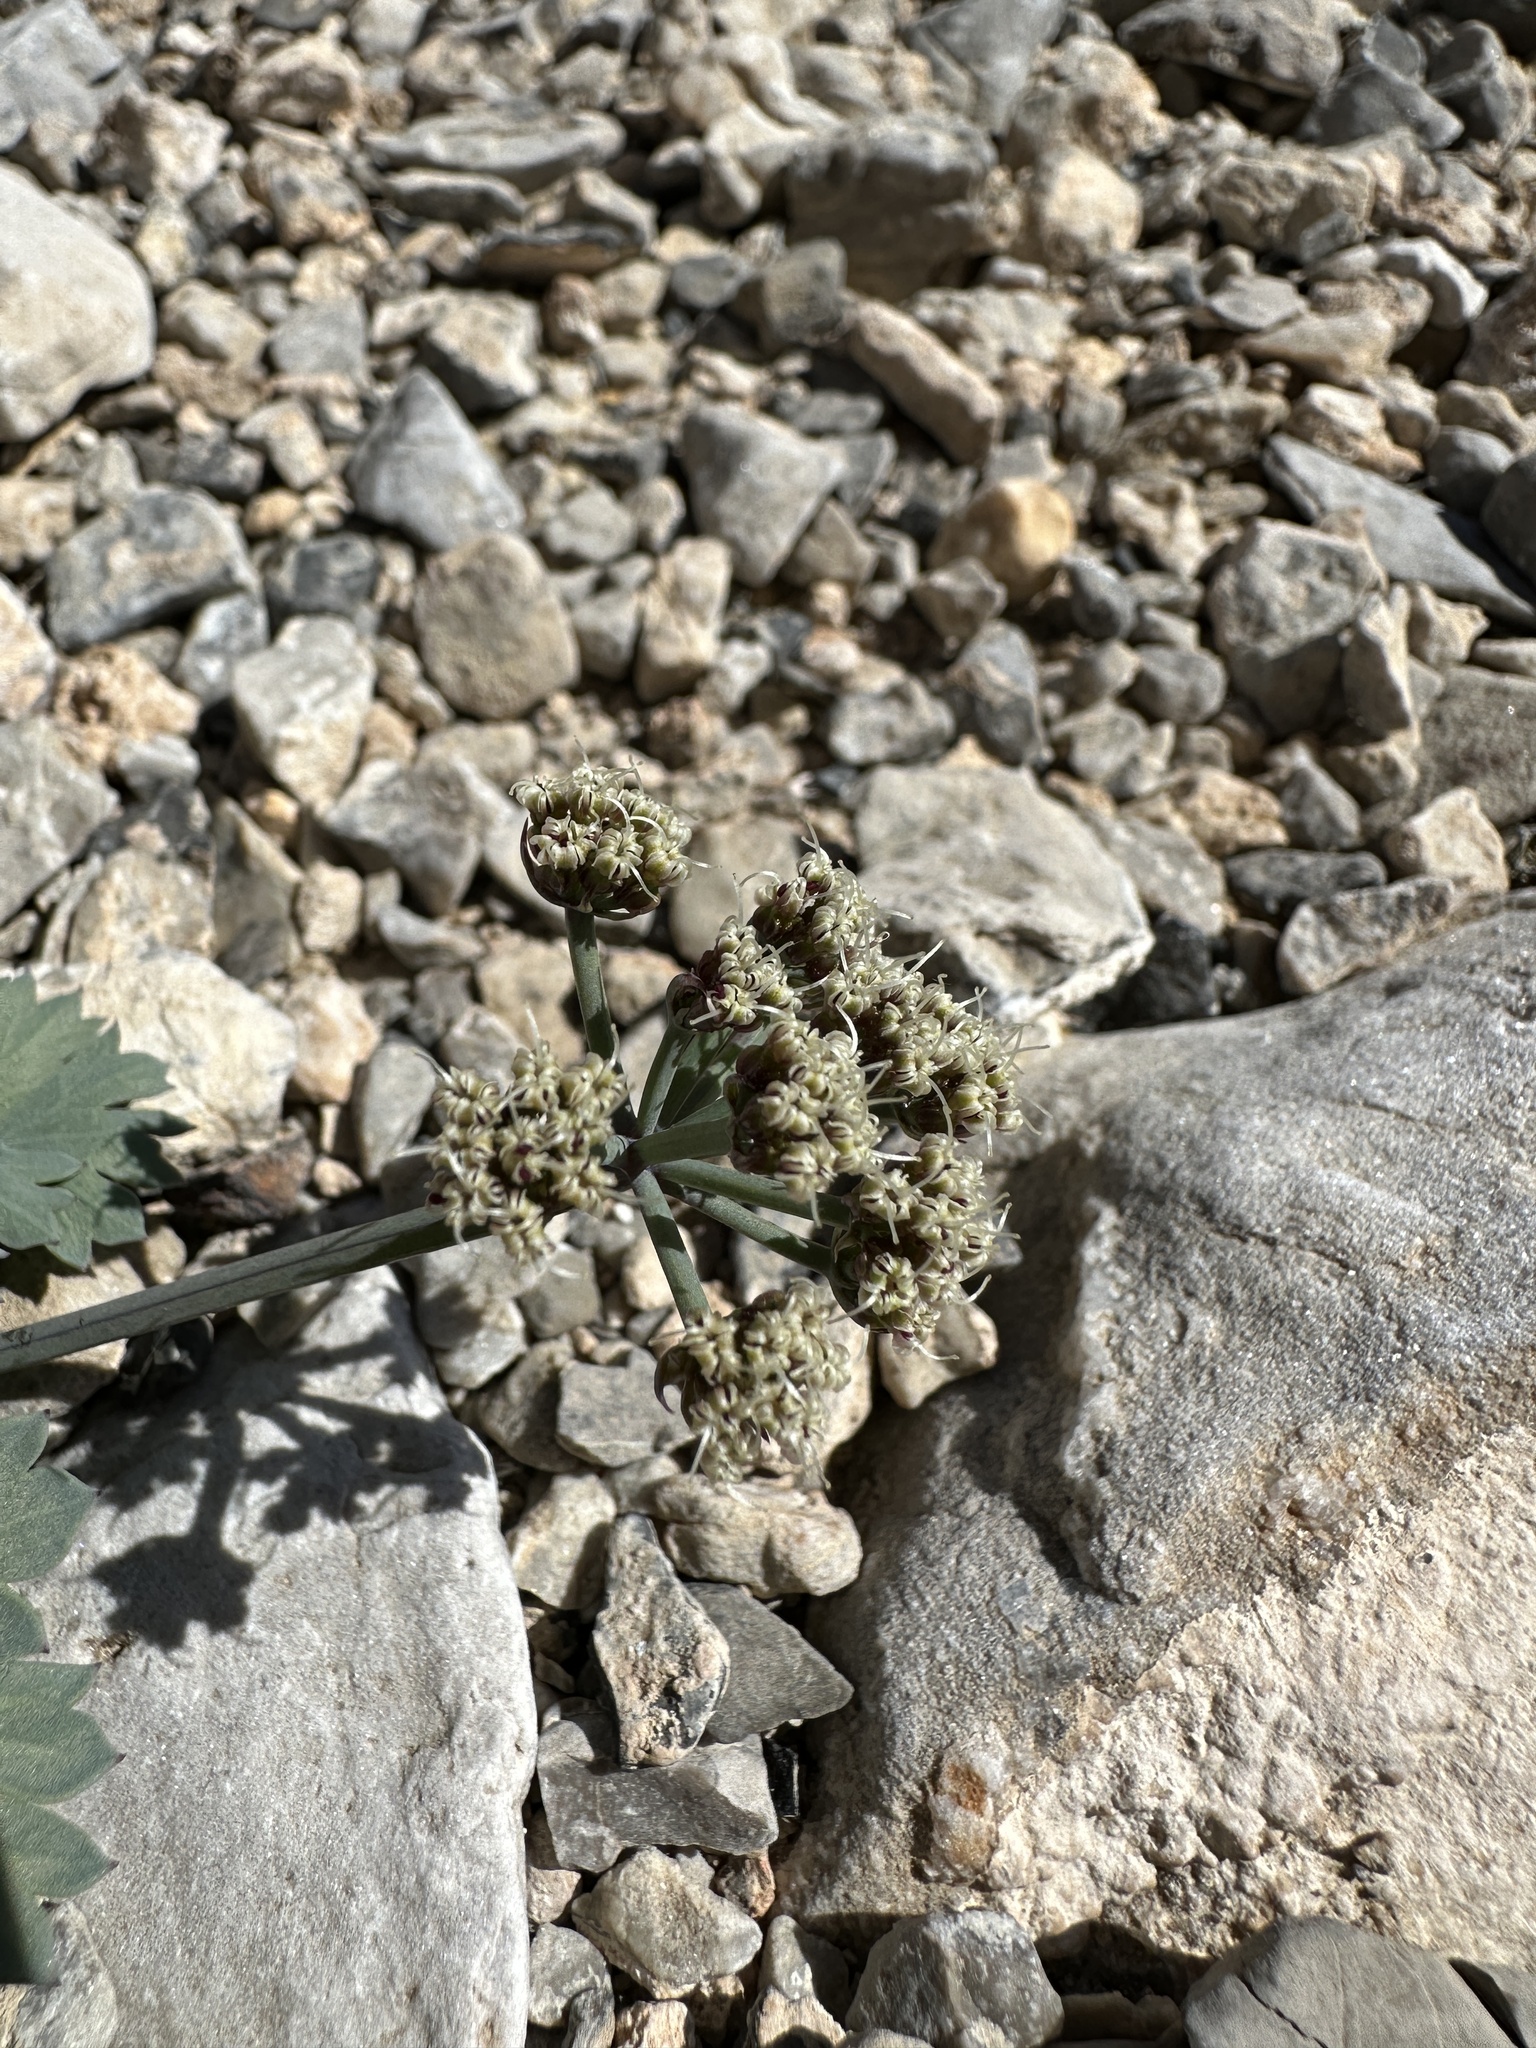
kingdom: Plantae
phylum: Tracheophyta
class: Magnoliopsida
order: Apiales
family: Apiaceae
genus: Cymopterus
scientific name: Cymopterus gilmanii
